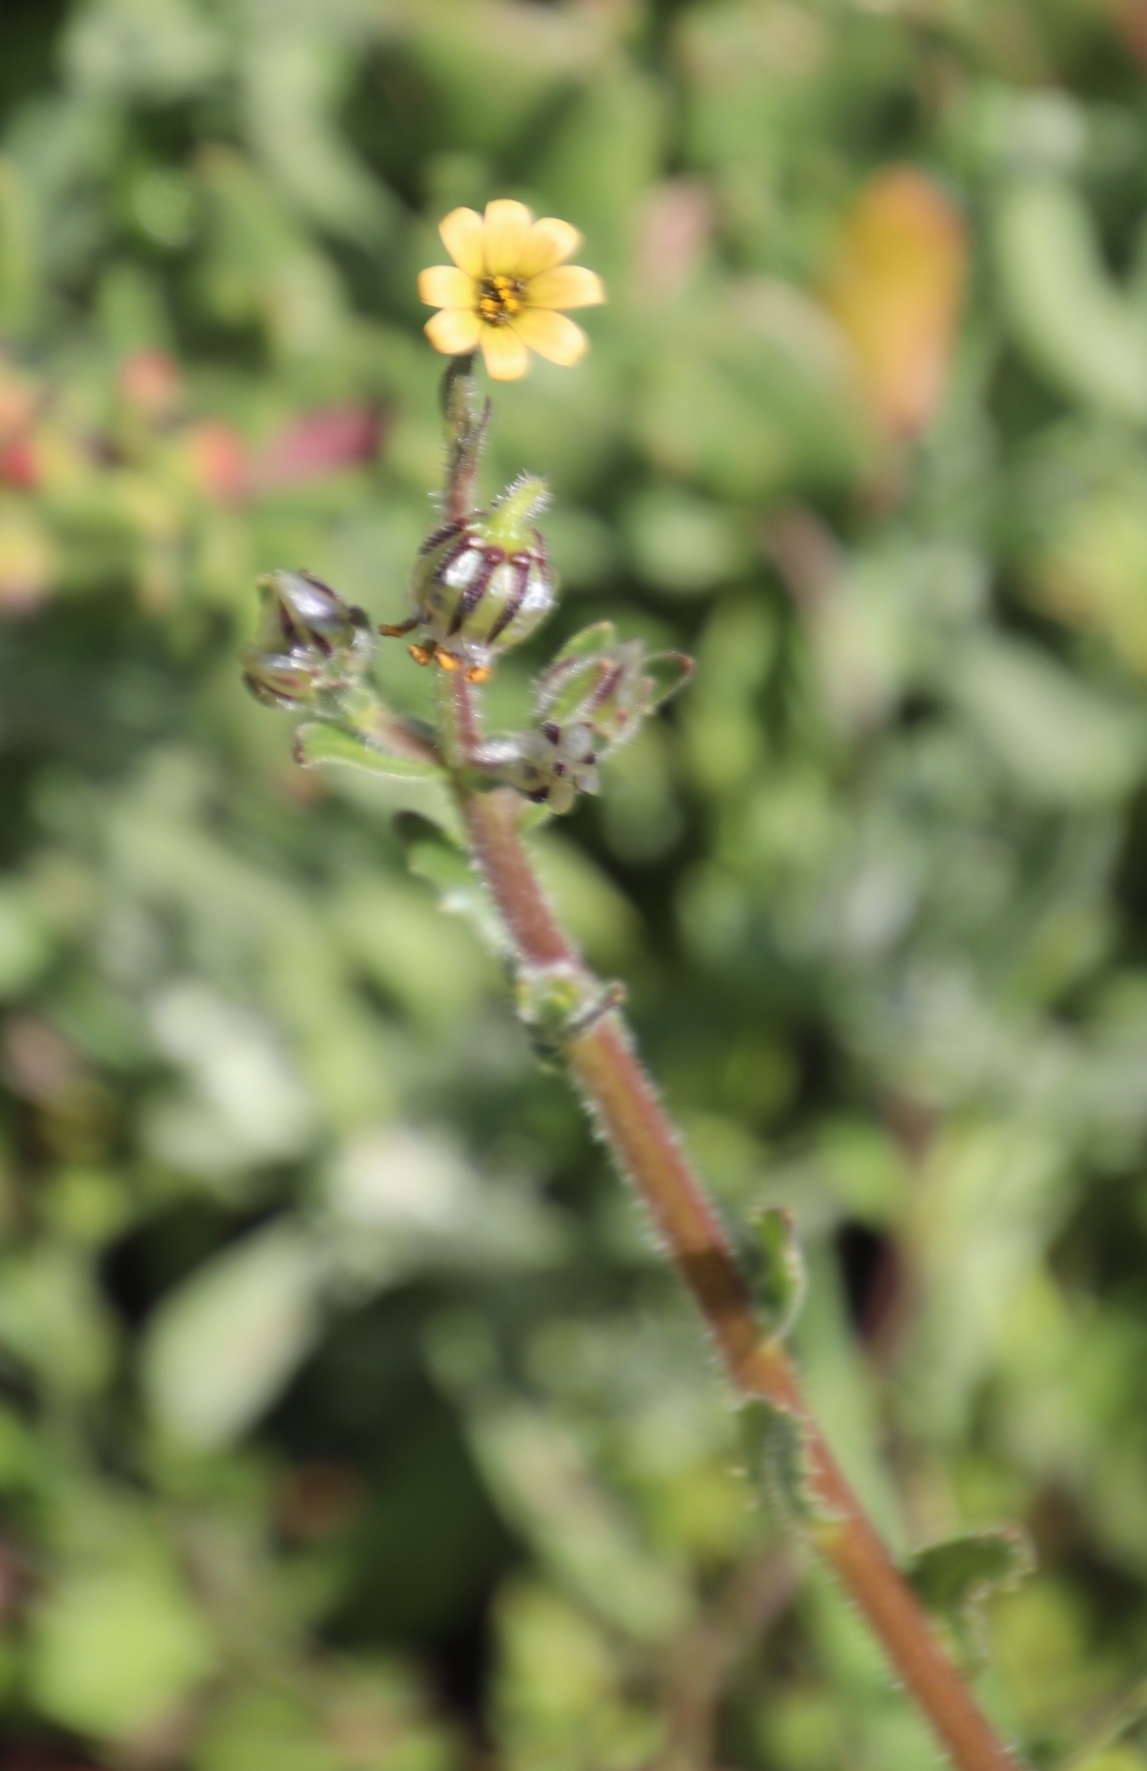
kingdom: Plantae
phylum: Tracheophyta
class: Magnoliopsida
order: Asterales
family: Asteraceae
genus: Osteospermum
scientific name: Osteospermum monstrosum
